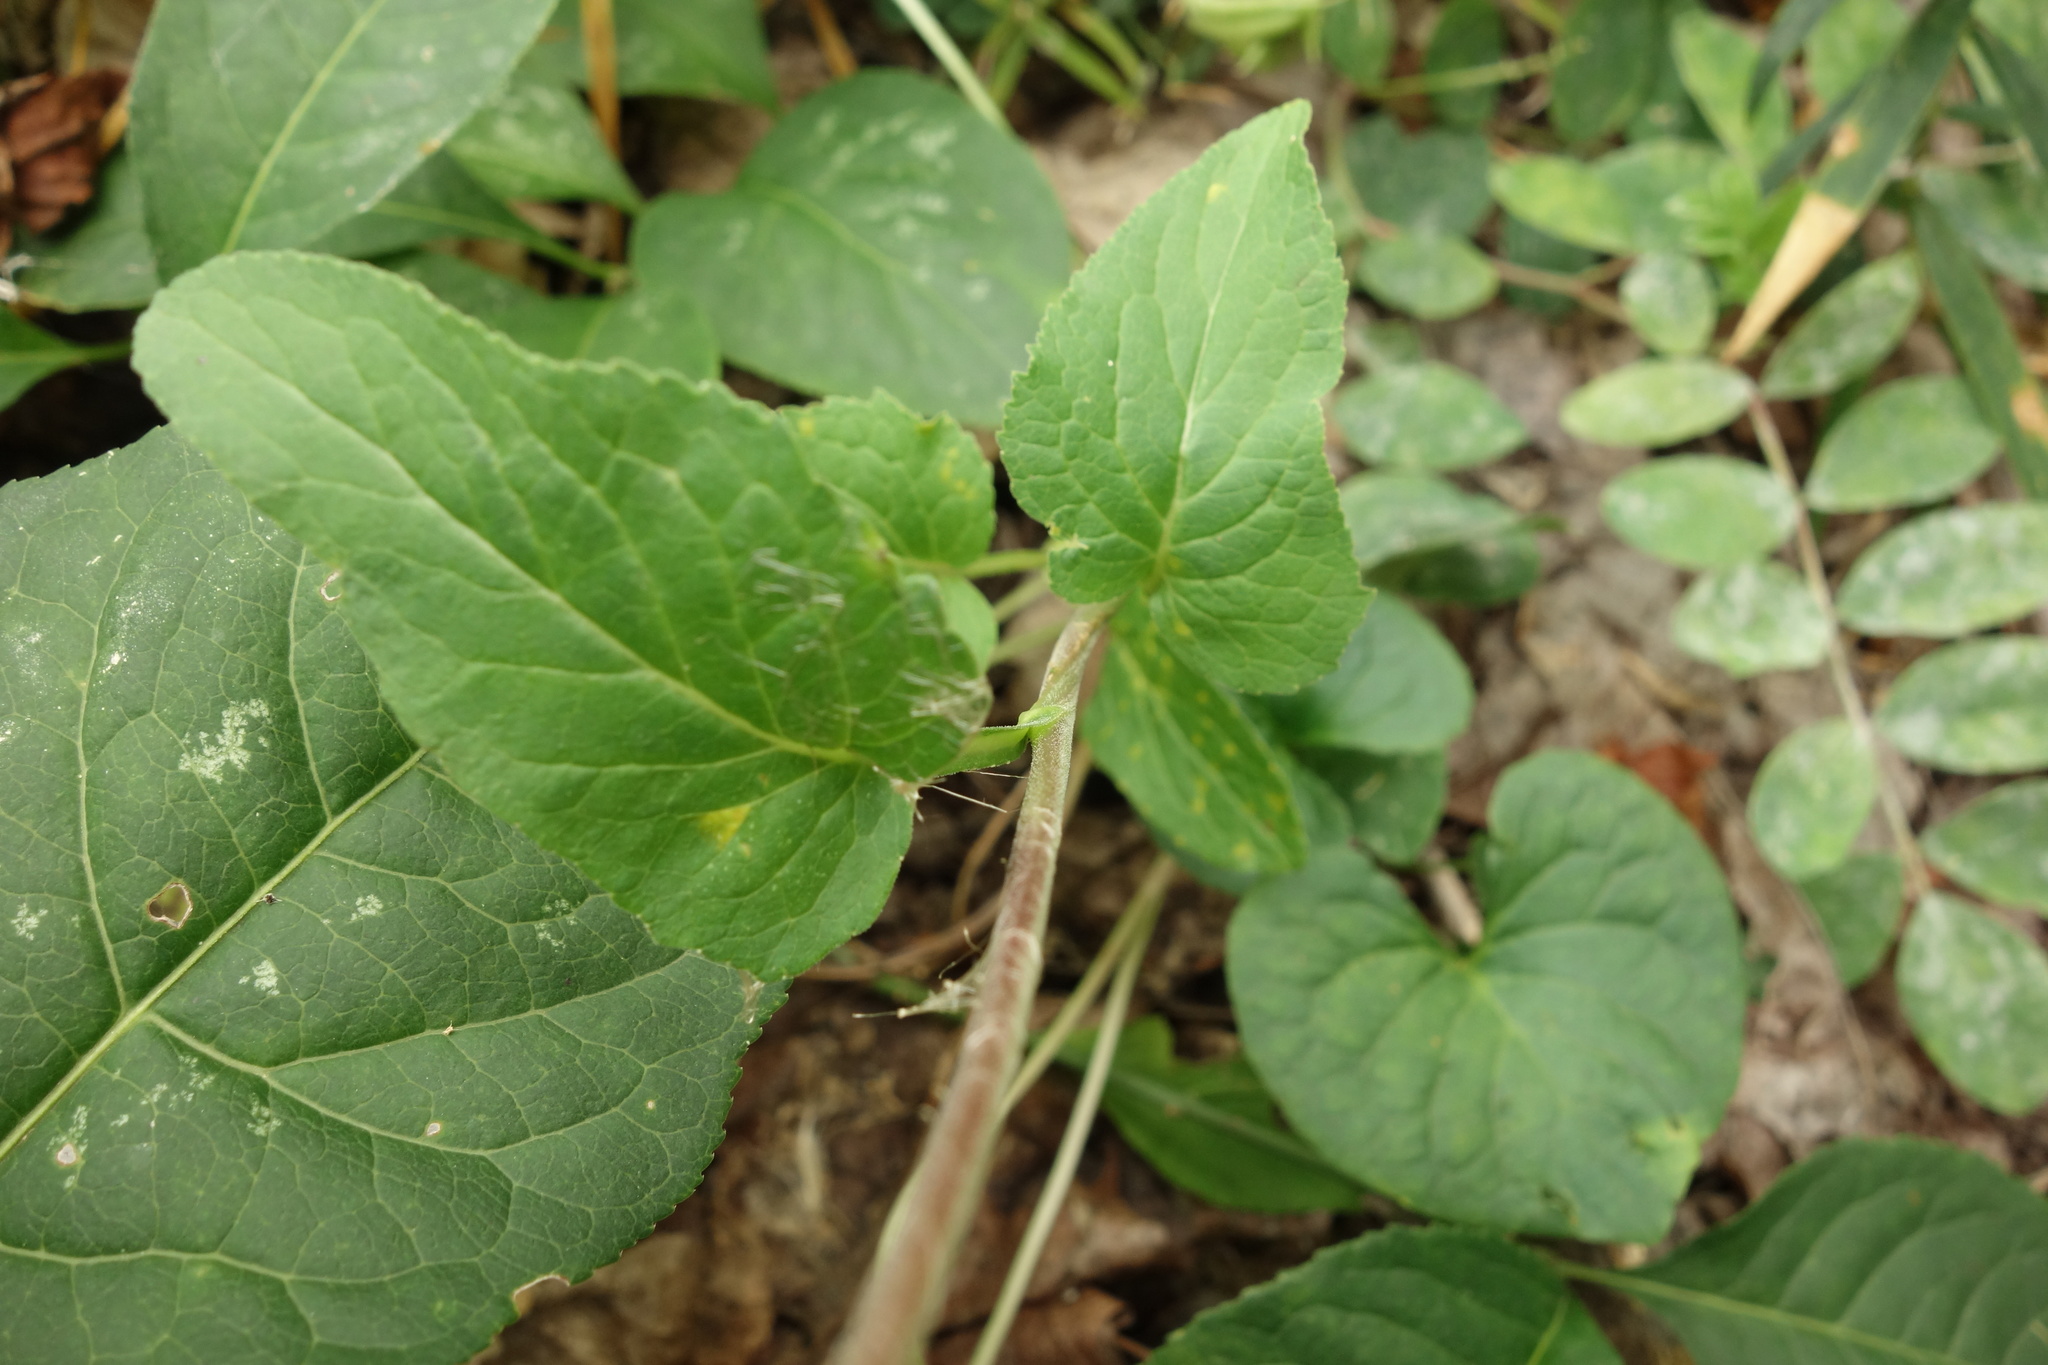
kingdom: Plantae
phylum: Tracheophyta
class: Magnoliopsida
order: Asterales
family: Campanulaceae
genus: Campanula
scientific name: Campanula bononiensis
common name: Pale bellflower
